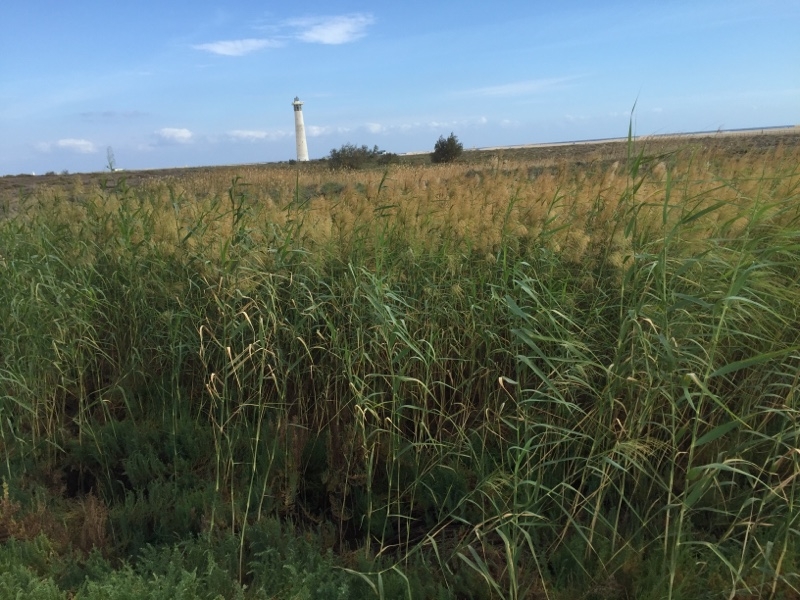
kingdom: Plantae
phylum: Tracheophyta
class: Liliopsida
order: Poales
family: Poaceae
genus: Phragmites
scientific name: Phragmites australis
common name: Common reed
